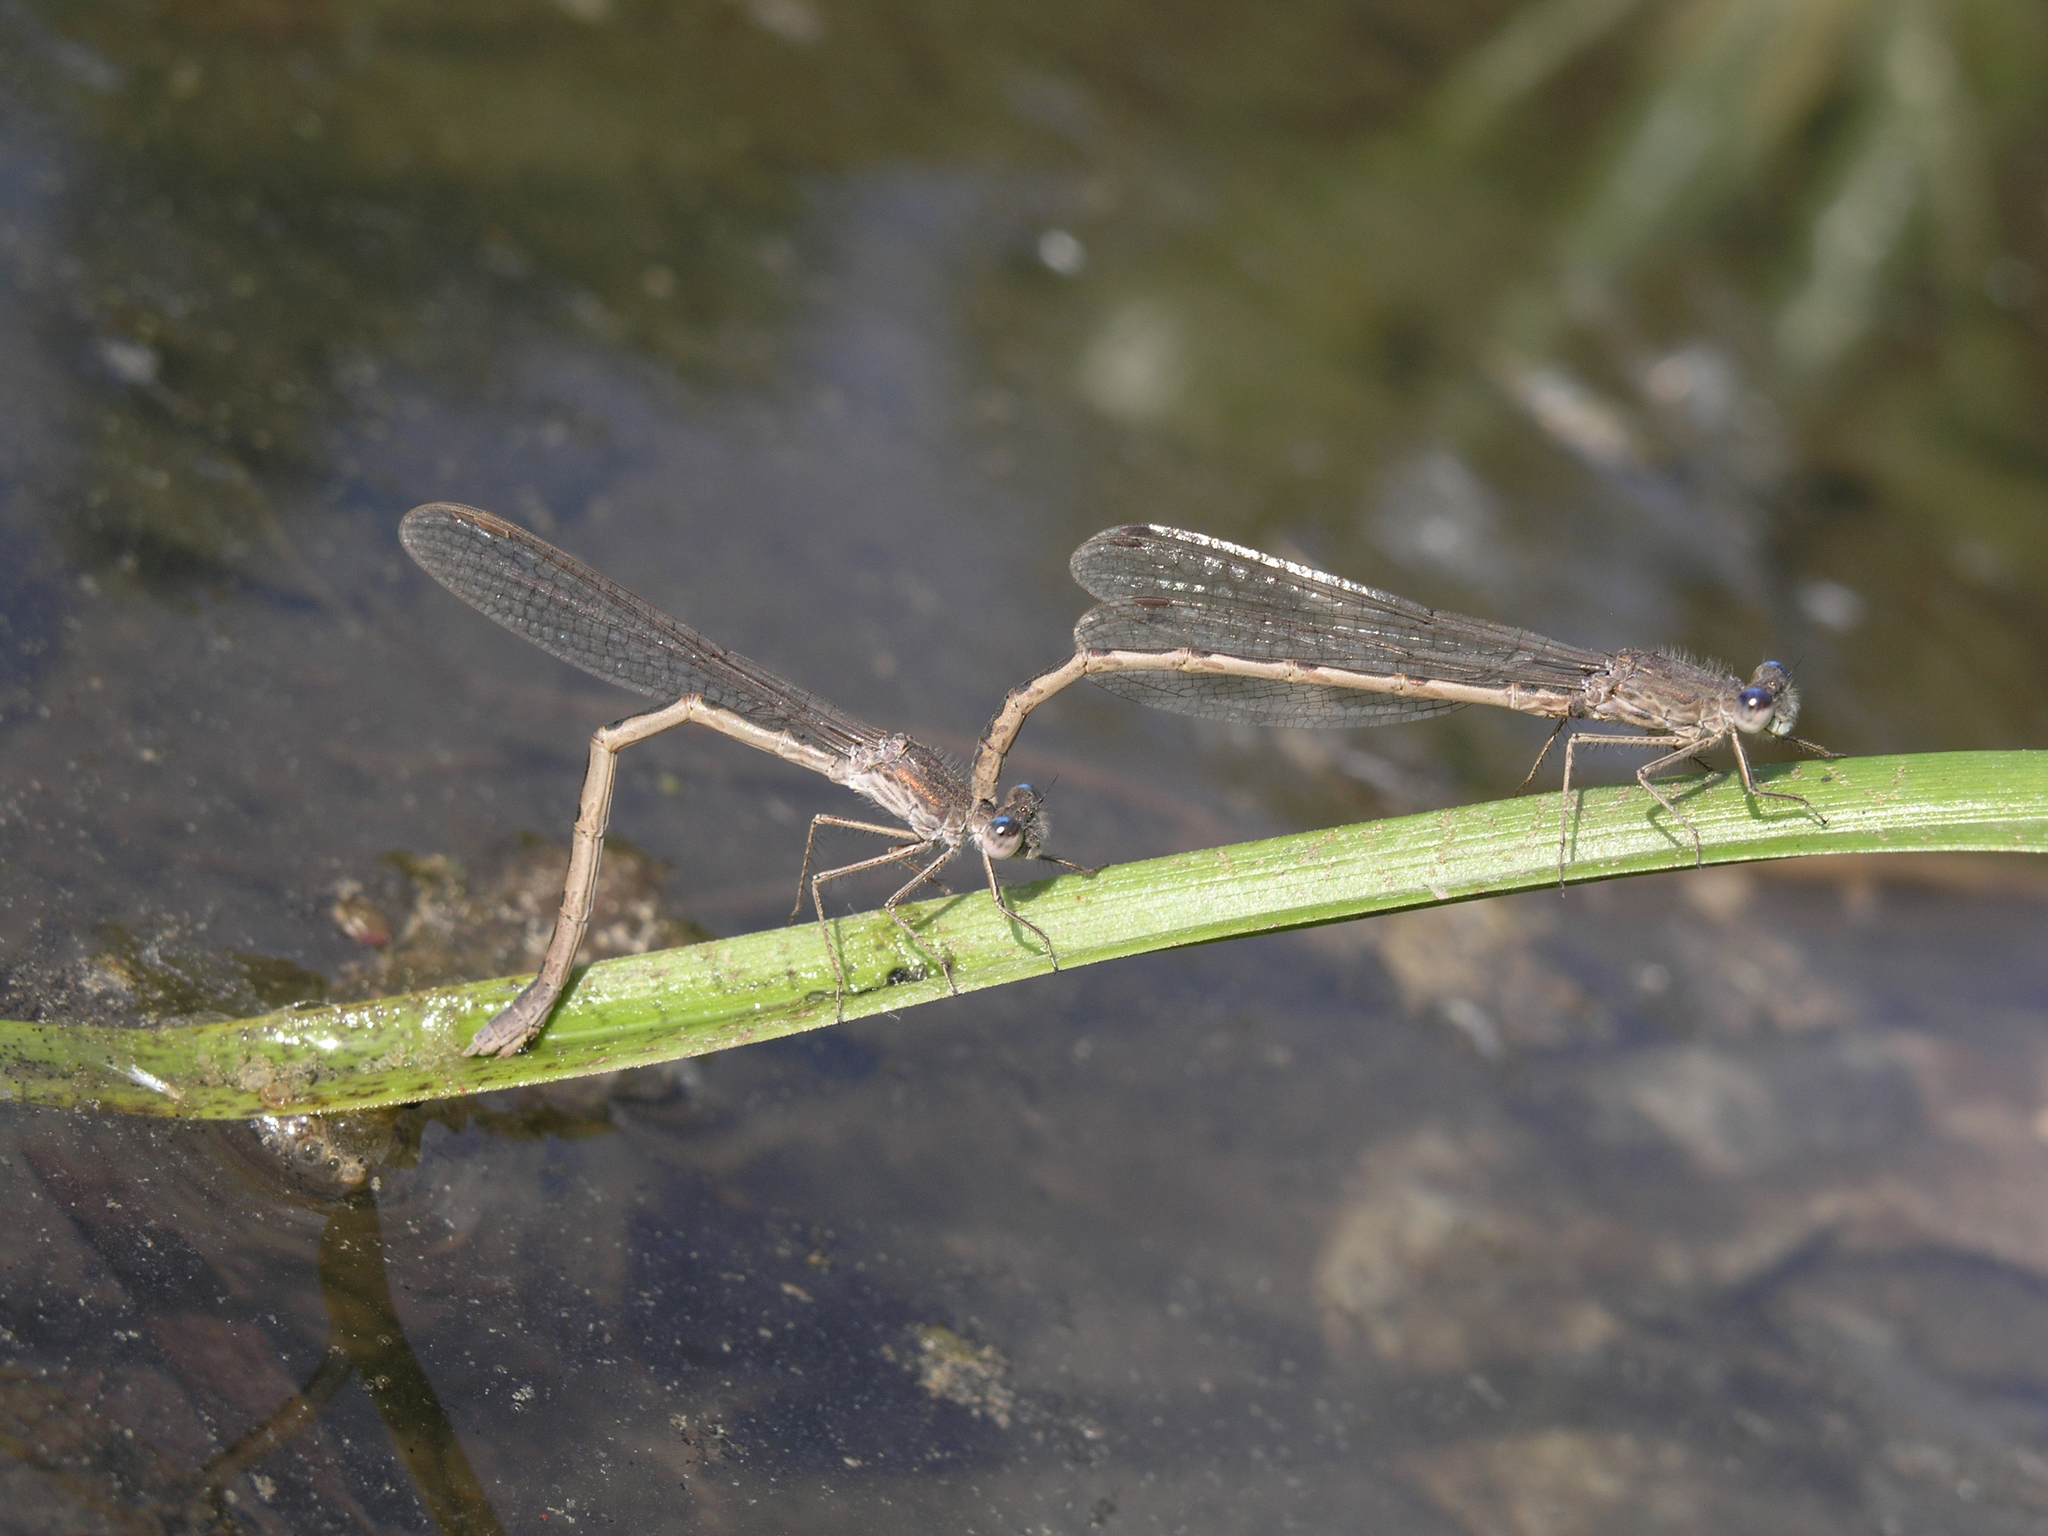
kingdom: Animalia
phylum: Arthropoda
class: Insecta
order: Odonata
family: Lestidae
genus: Sympecma
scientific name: Sympecma paedisca
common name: Siberian winter damsel
